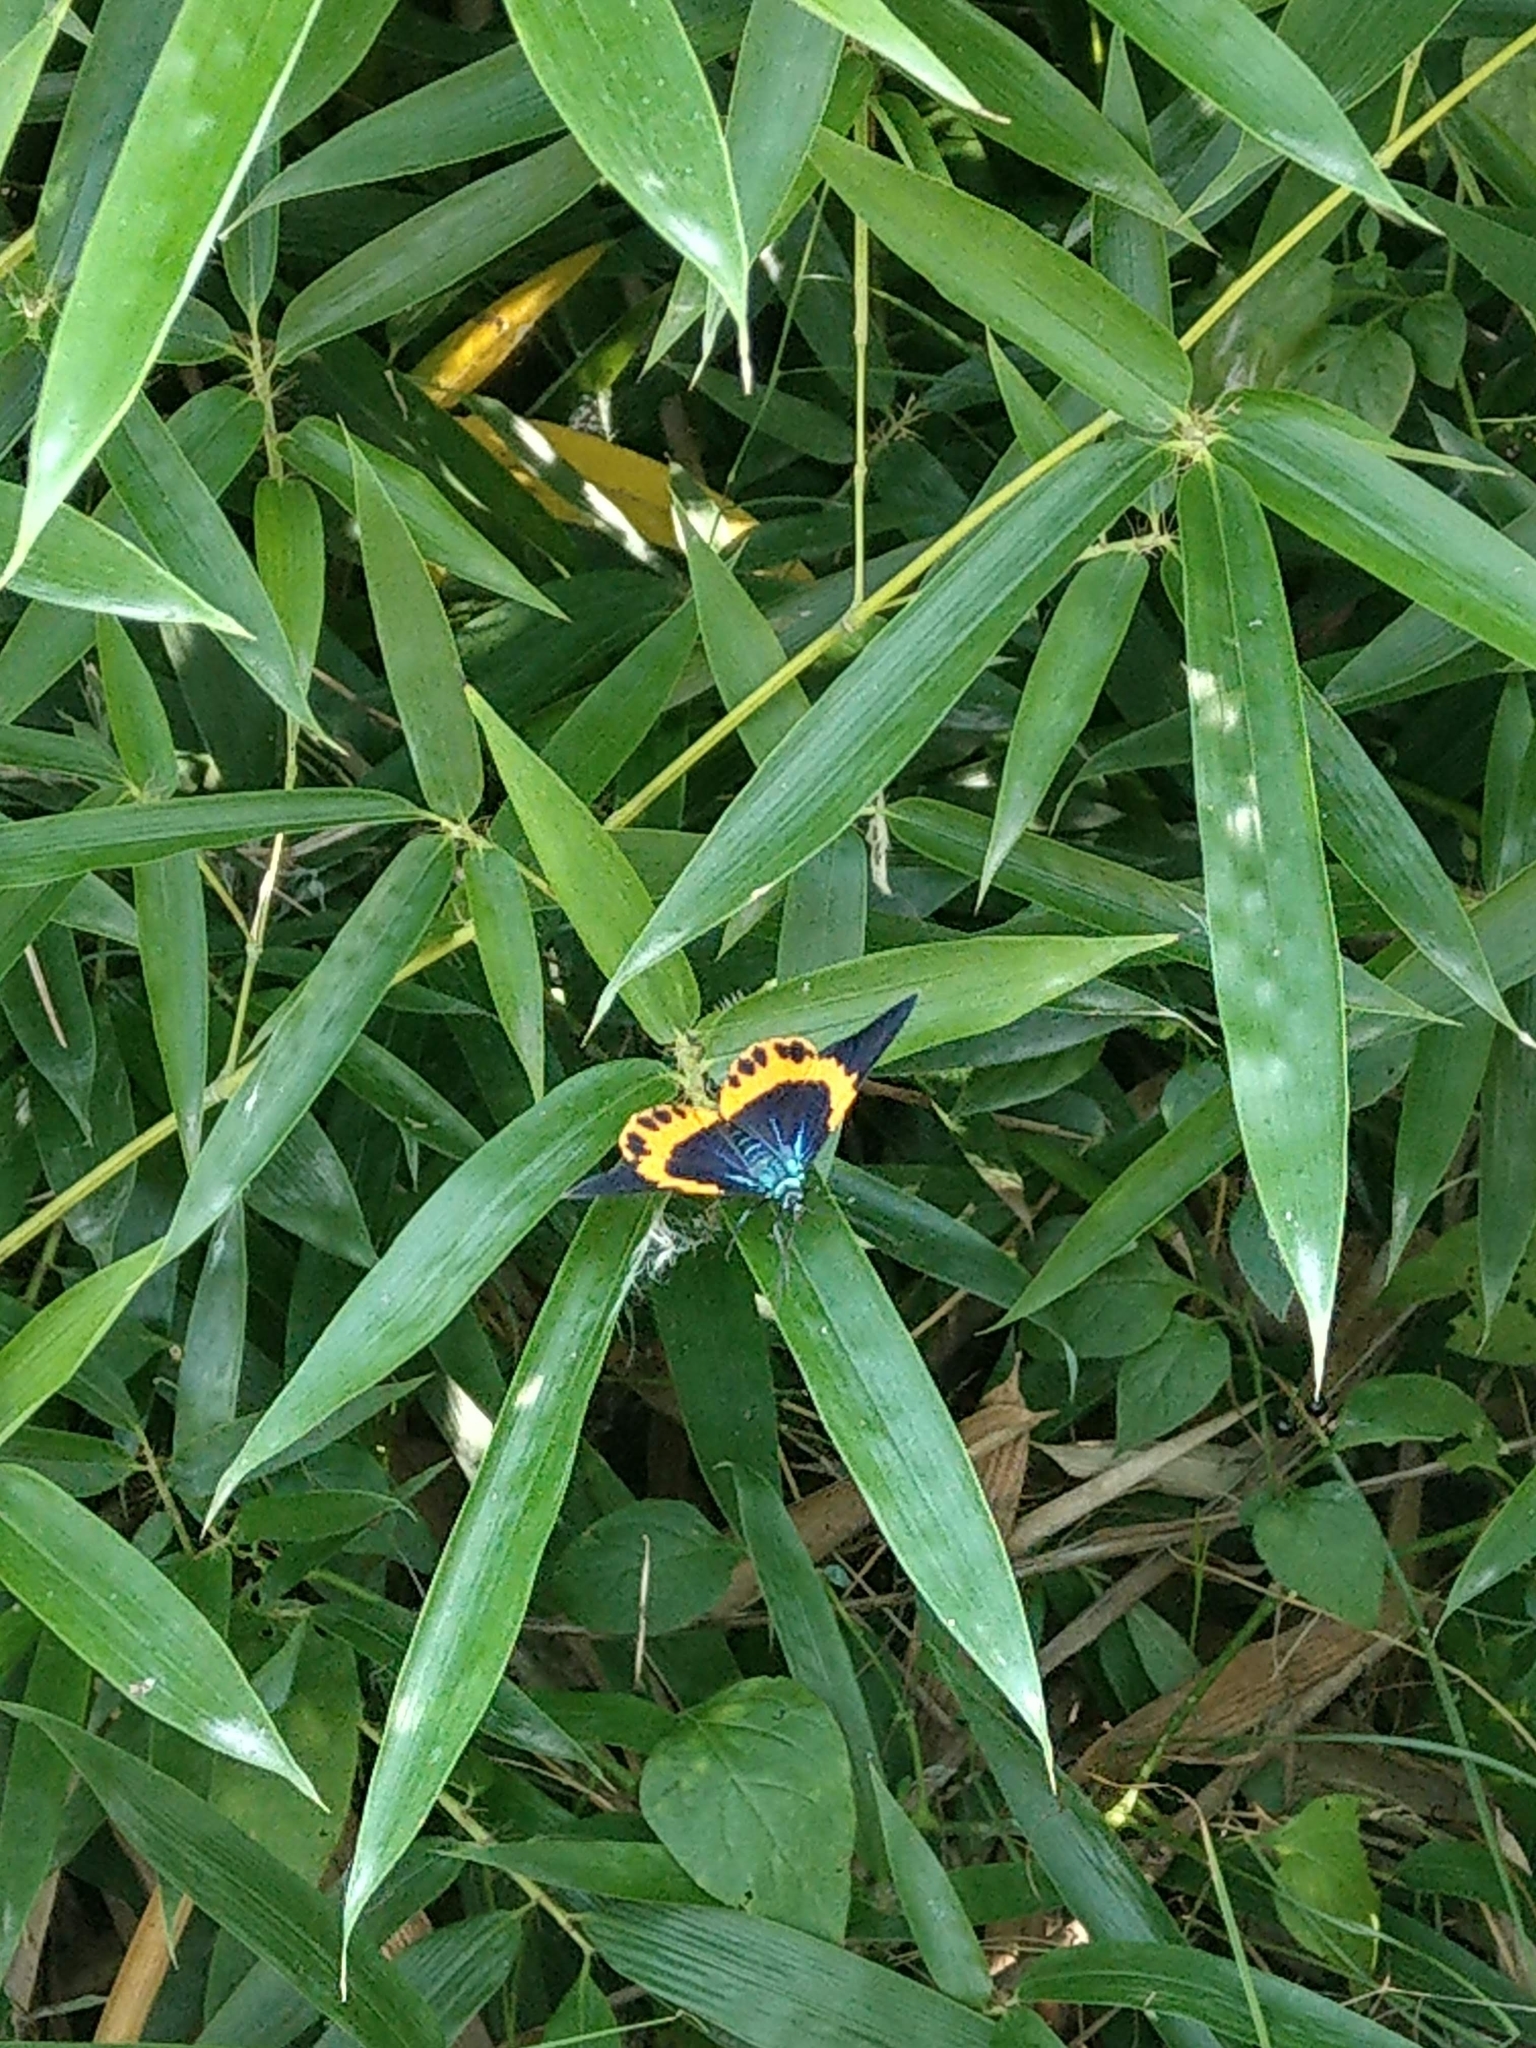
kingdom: Animalia
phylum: Arthropoda
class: Insecta
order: Lepidoptera
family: Geometridae
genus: Milionia
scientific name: Milionia basalis
